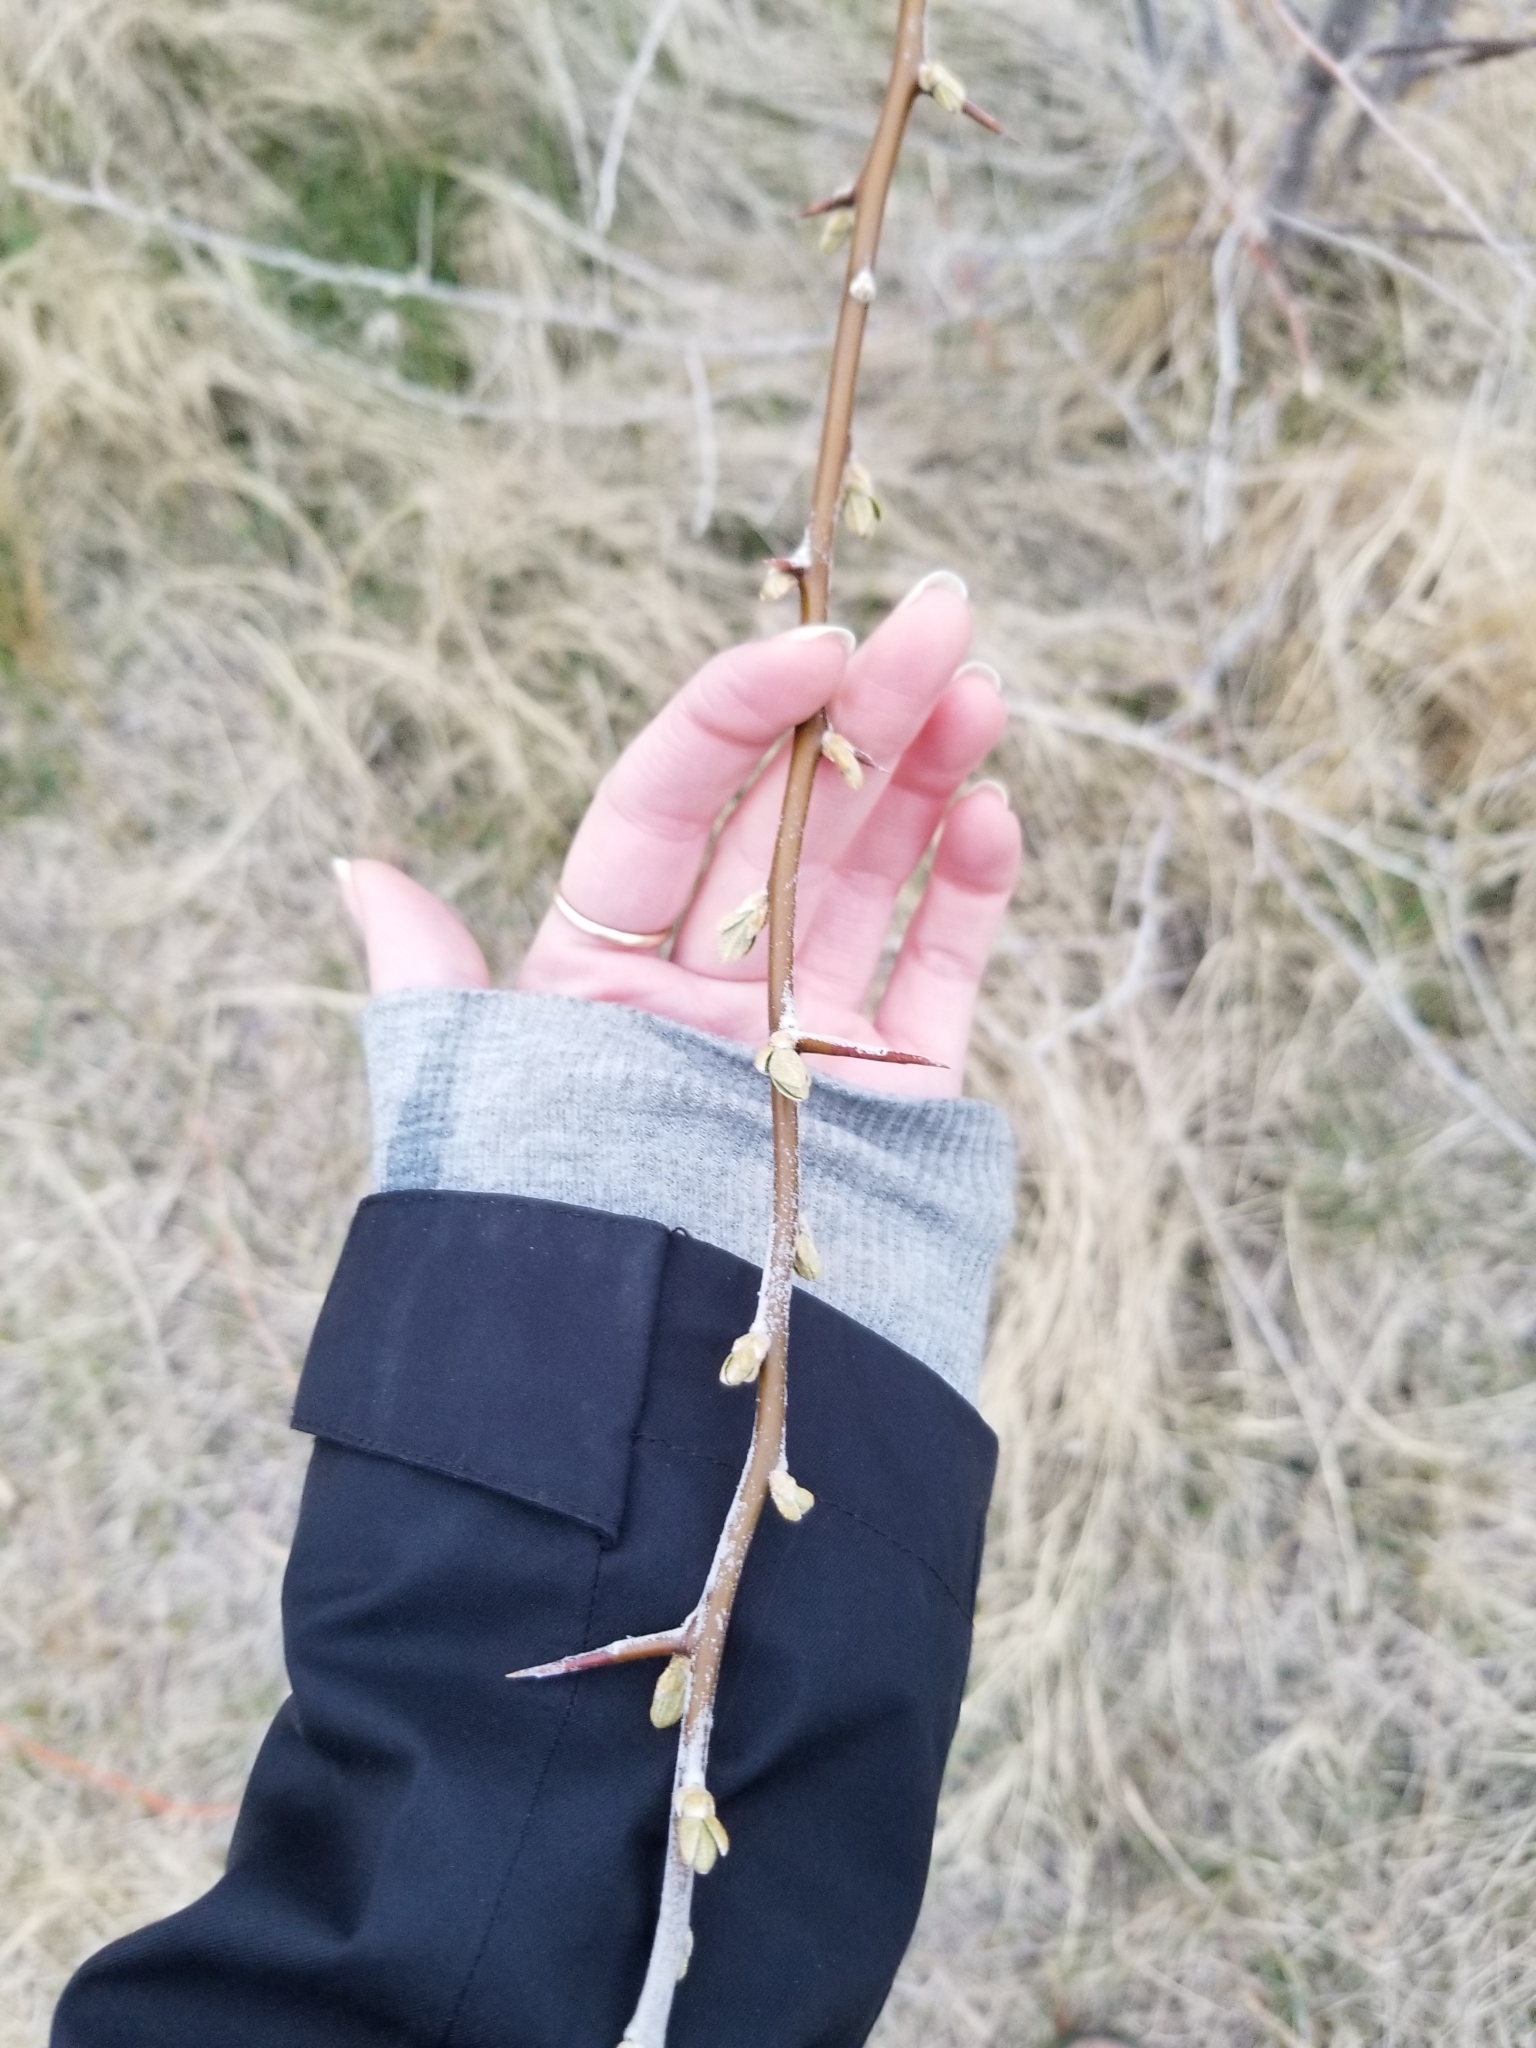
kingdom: Plantae
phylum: Tracheophyta
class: Magnoliopsida
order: Rosales
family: Elaeagnaceae
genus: Elaeagnus
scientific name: Elaeagnus angustifolia
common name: Russian olive
